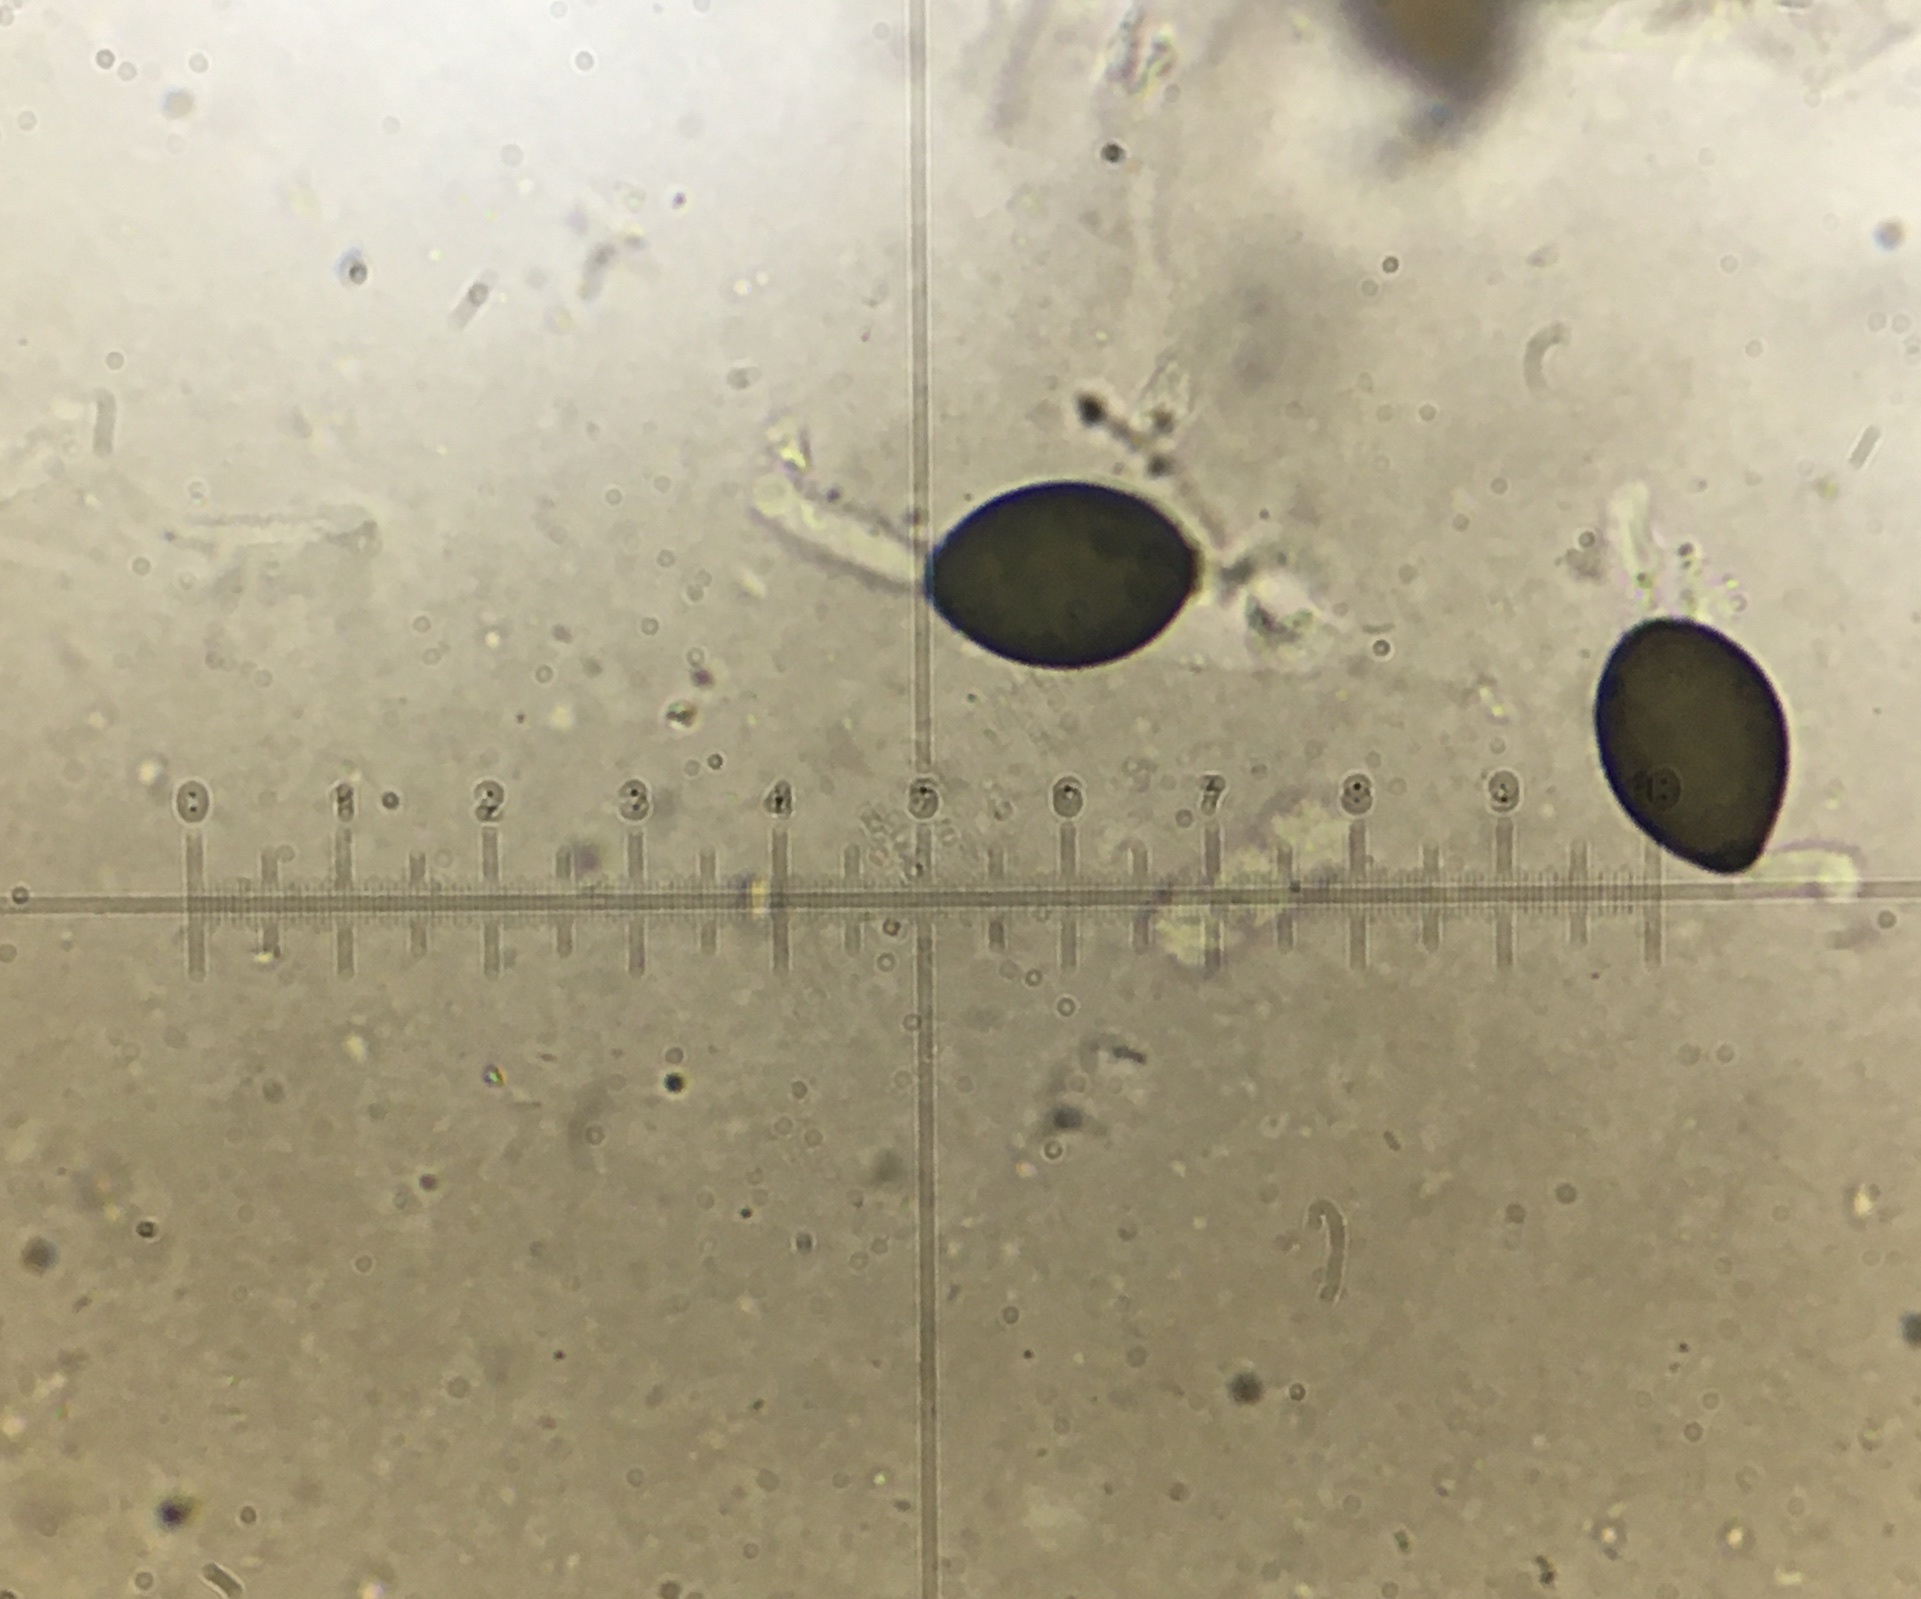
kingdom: Fungi
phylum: Ascomycota
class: Sordariomycetes
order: Sordariales
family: Podosporaceae
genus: Podospora
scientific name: Podospora collapsa
